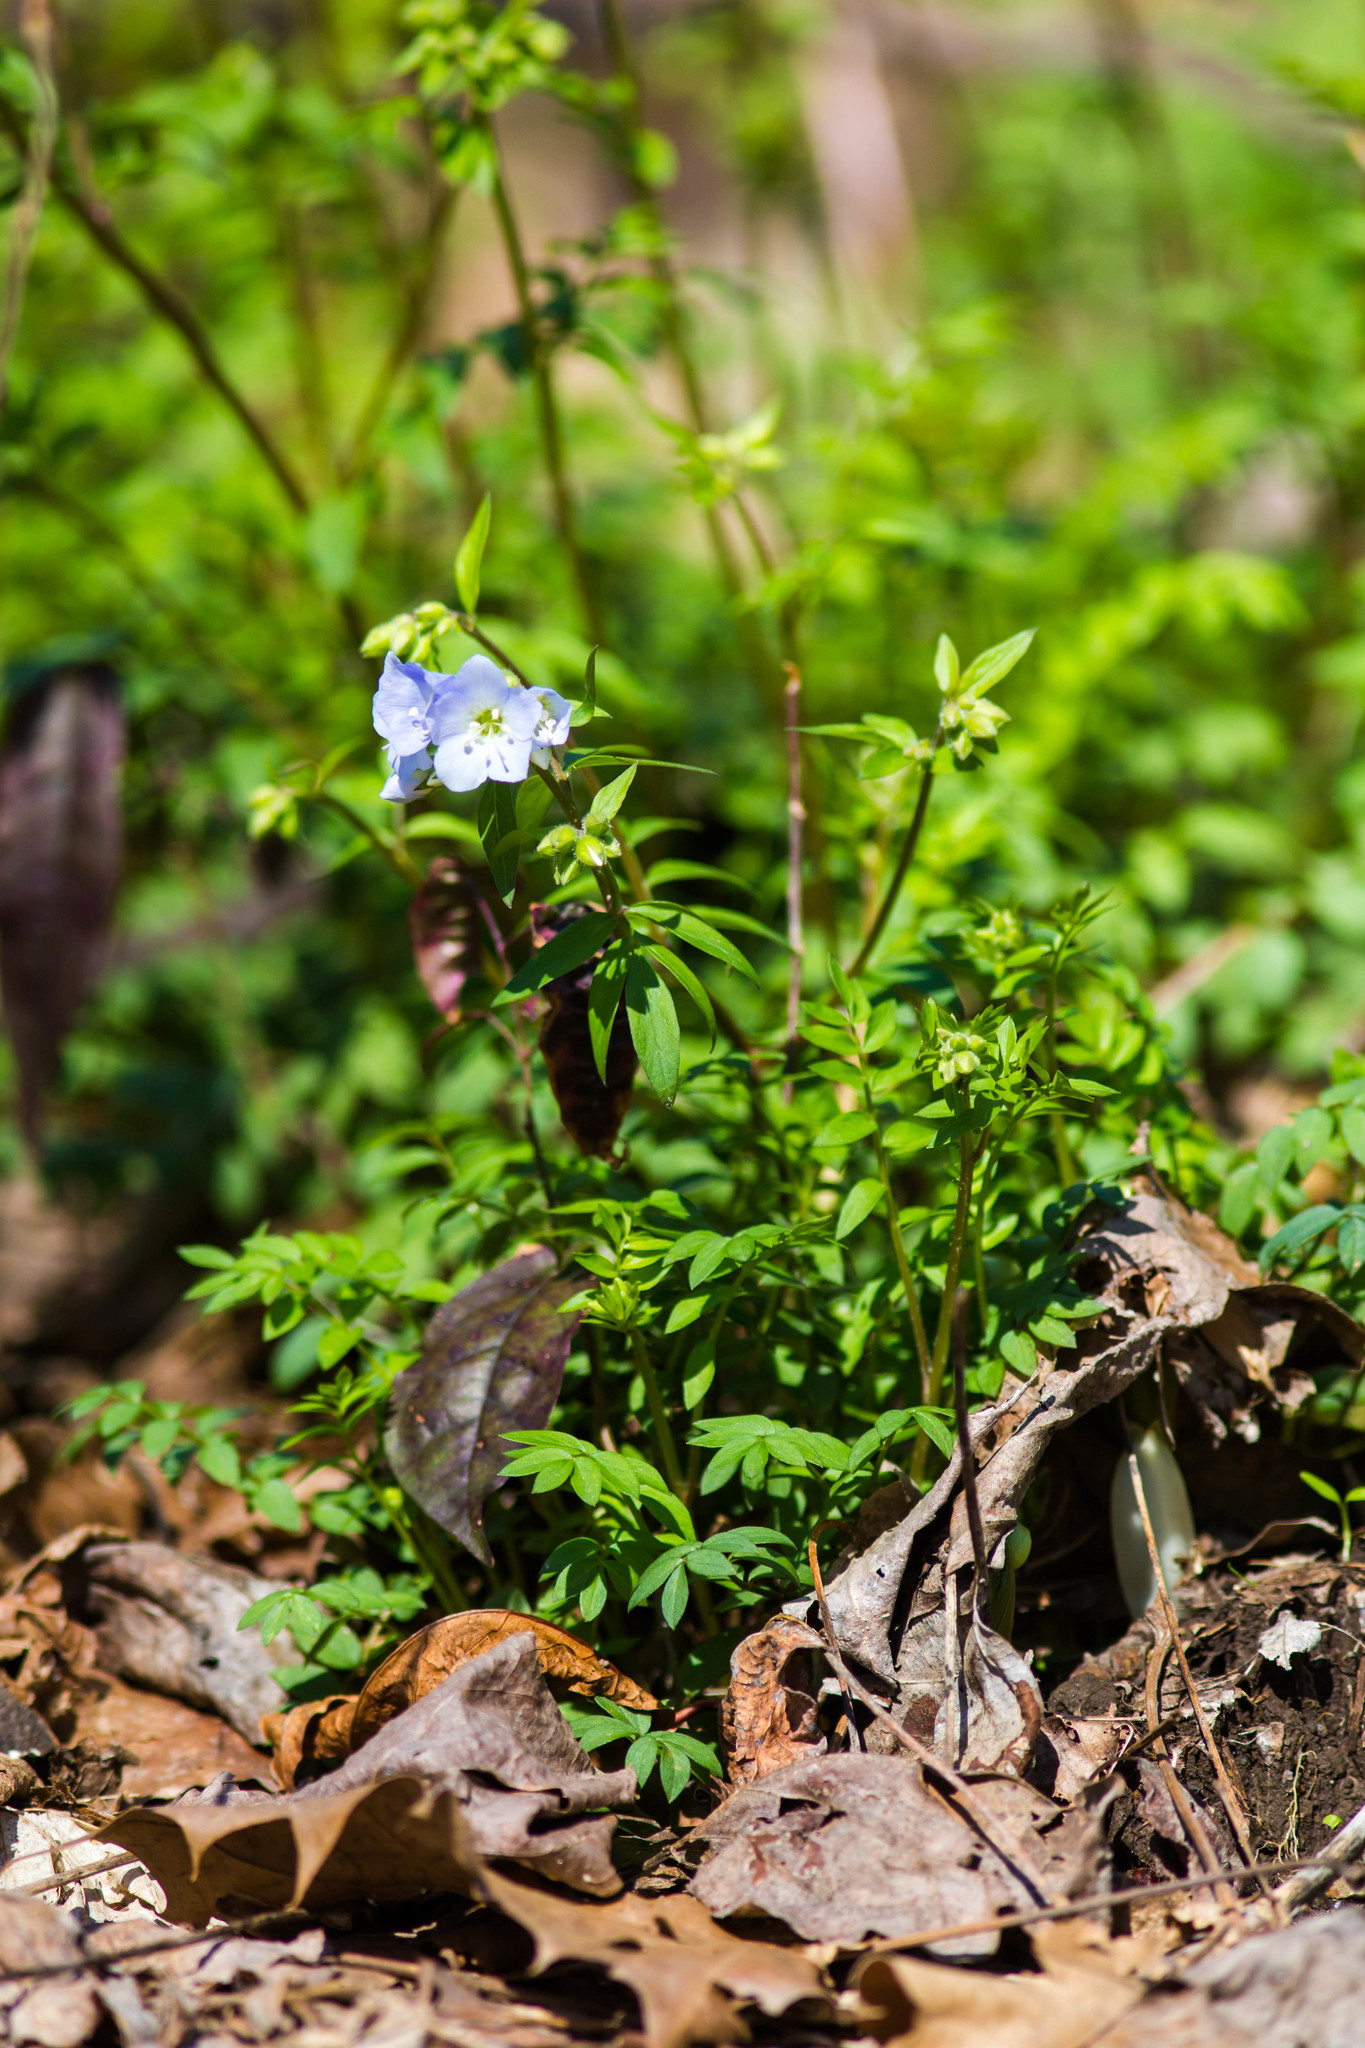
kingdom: Plantae
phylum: Tracheophyta
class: Magnoliopsida
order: Ericales
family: Polemoniaceae
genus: Polemonium
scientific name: Polemonium reptans
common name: Creeping jacob's-ladder
